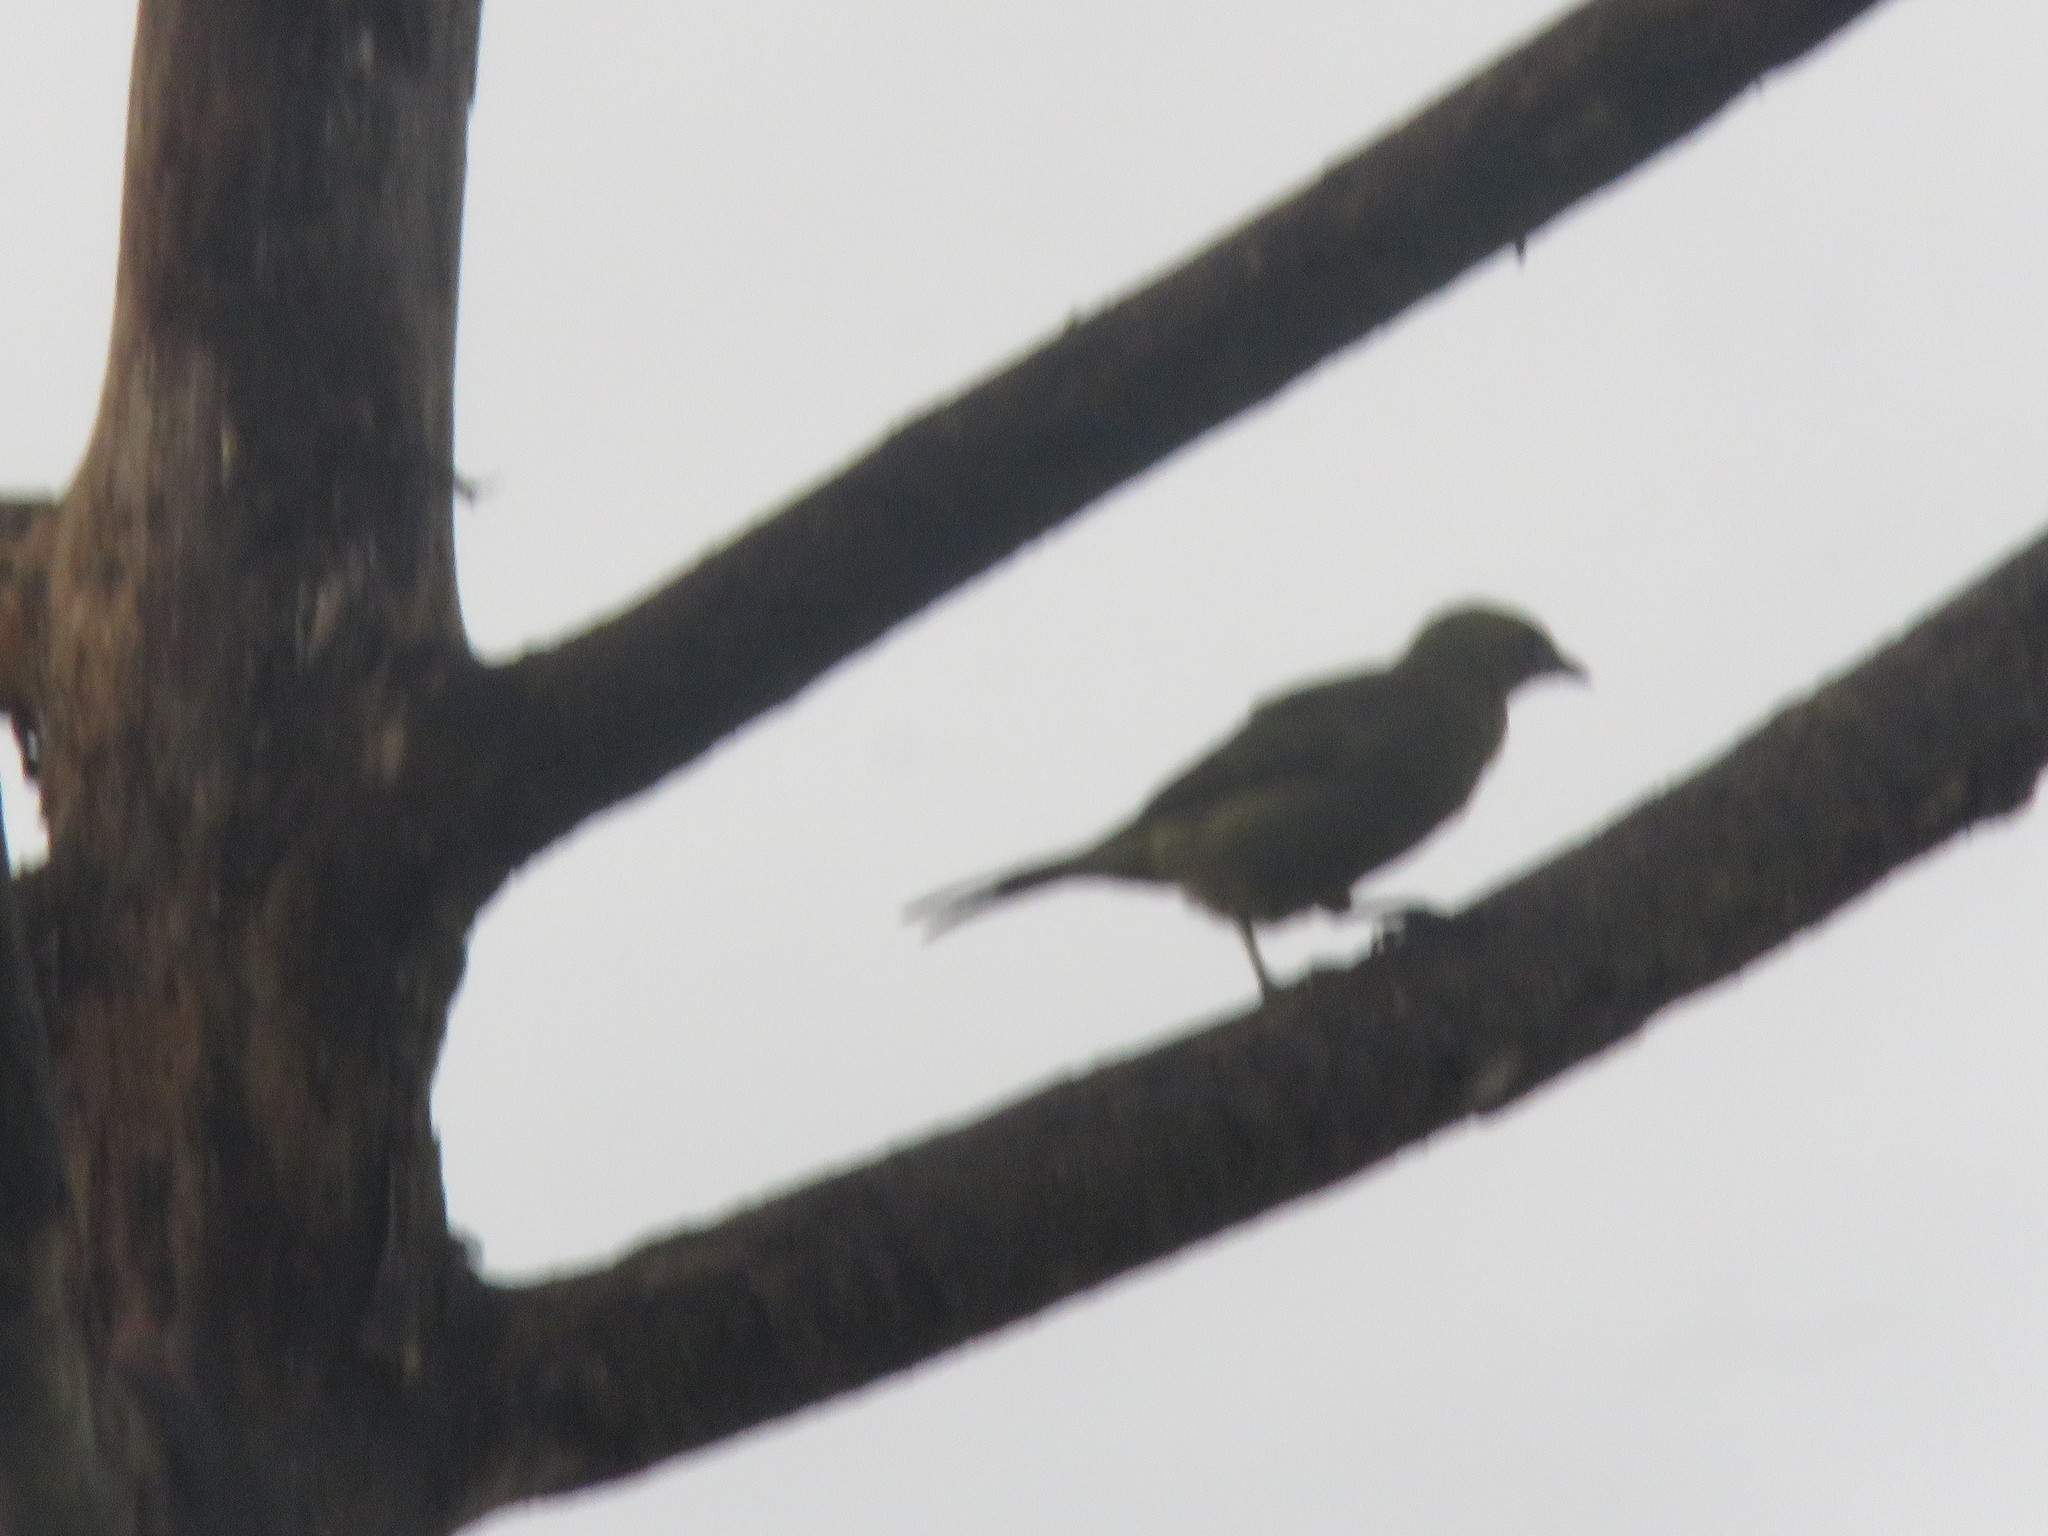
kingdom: Animalia
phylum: Chordata
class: Aves
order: Passeriformes
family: Thraupidae
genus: Thraupis
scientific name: Thraupis palmarum
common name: Palm tanager
